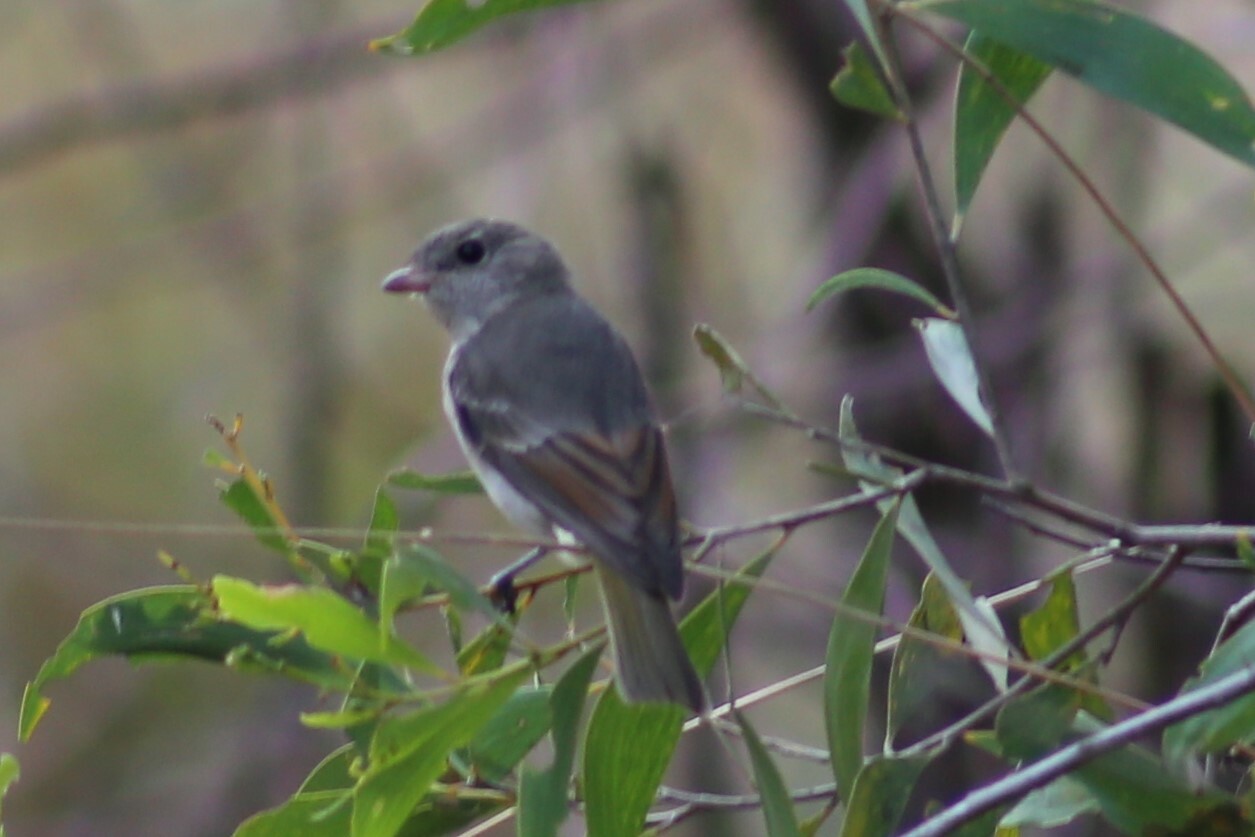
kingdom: Animalia
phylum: Chordata
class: Aves
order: Passeriformes
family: Pachycephalidae
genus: Pachycephala
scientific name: Pachycephala pectoralis
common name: Australian golden whistler
